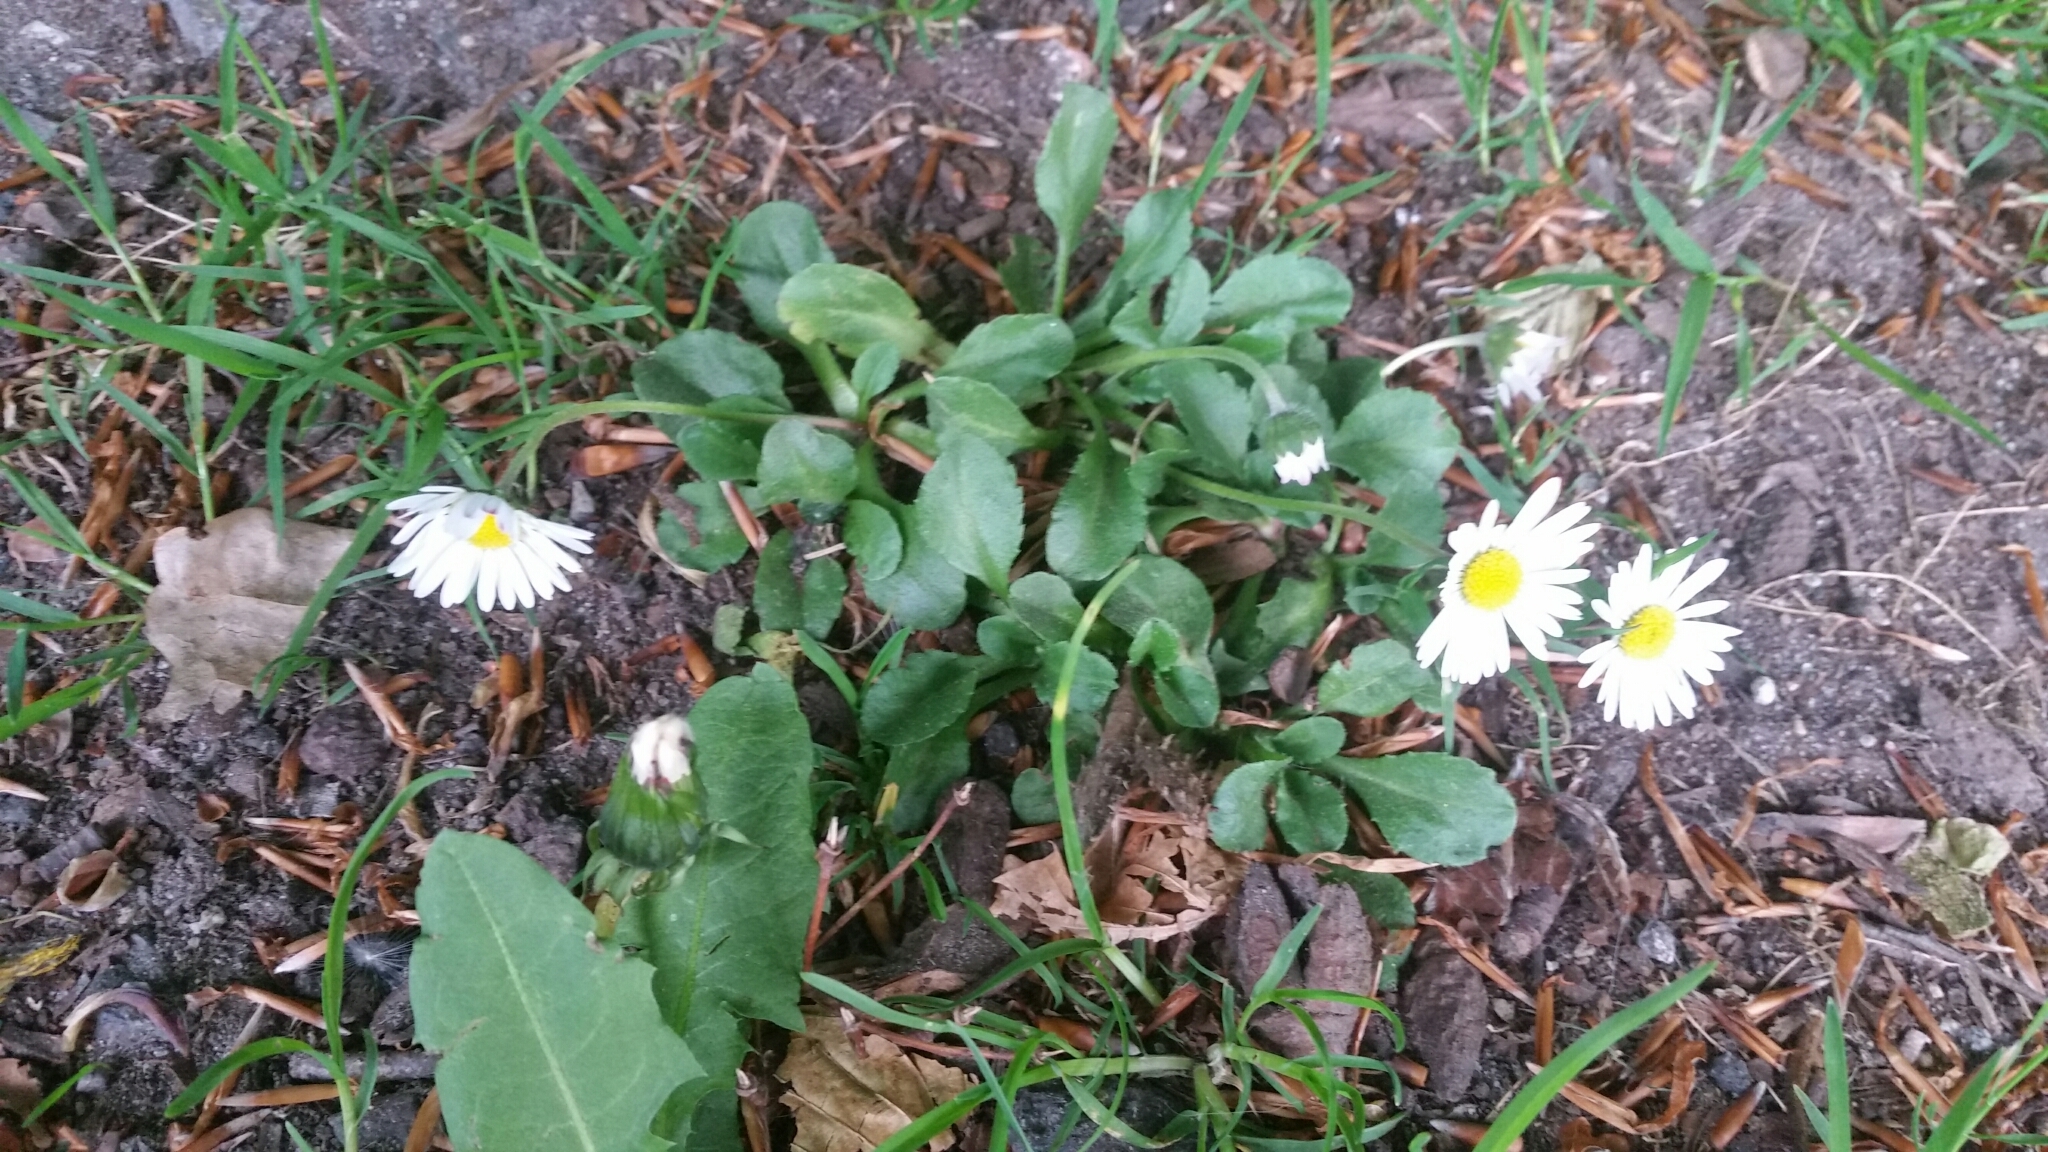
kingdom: Plantae
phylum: Tracheophyta
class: Magnoliopsida
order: Asterales
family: Asteraceae
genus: Bellis
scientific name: Bellis perennis
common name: Lawndaisy
